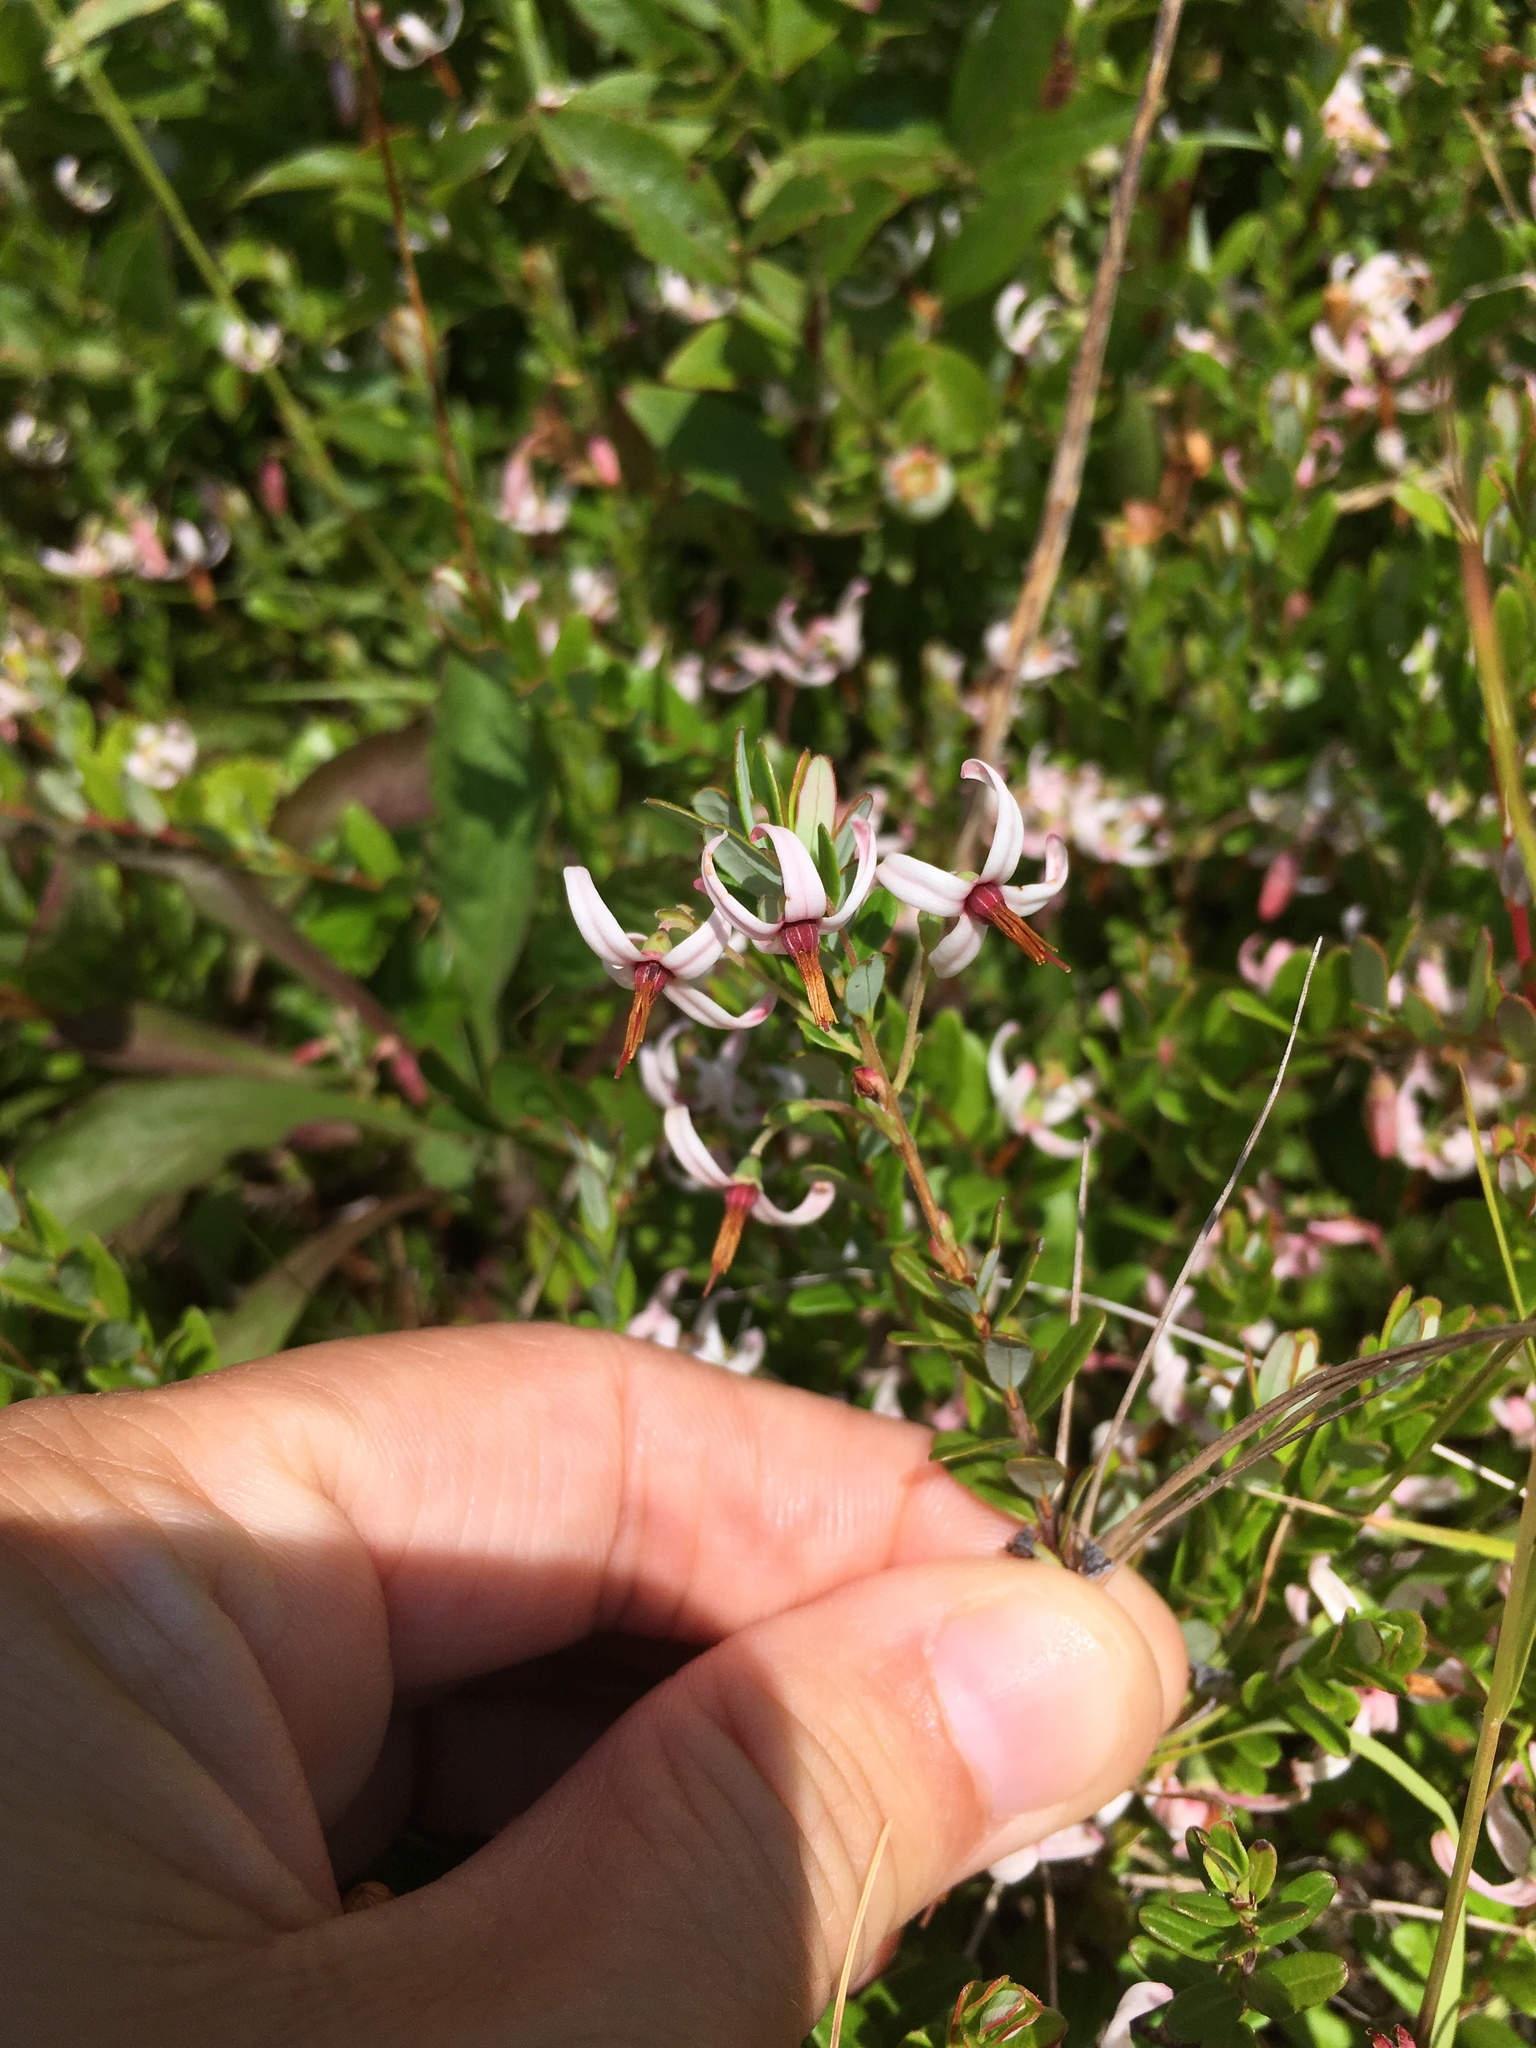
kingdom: Plantae
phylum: Tracheophyta
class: Magnoliopsida
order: Ericales
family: Ericaceae
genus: Vaccinium
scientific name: Vaccinium macrocarpon
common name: American cranberry
